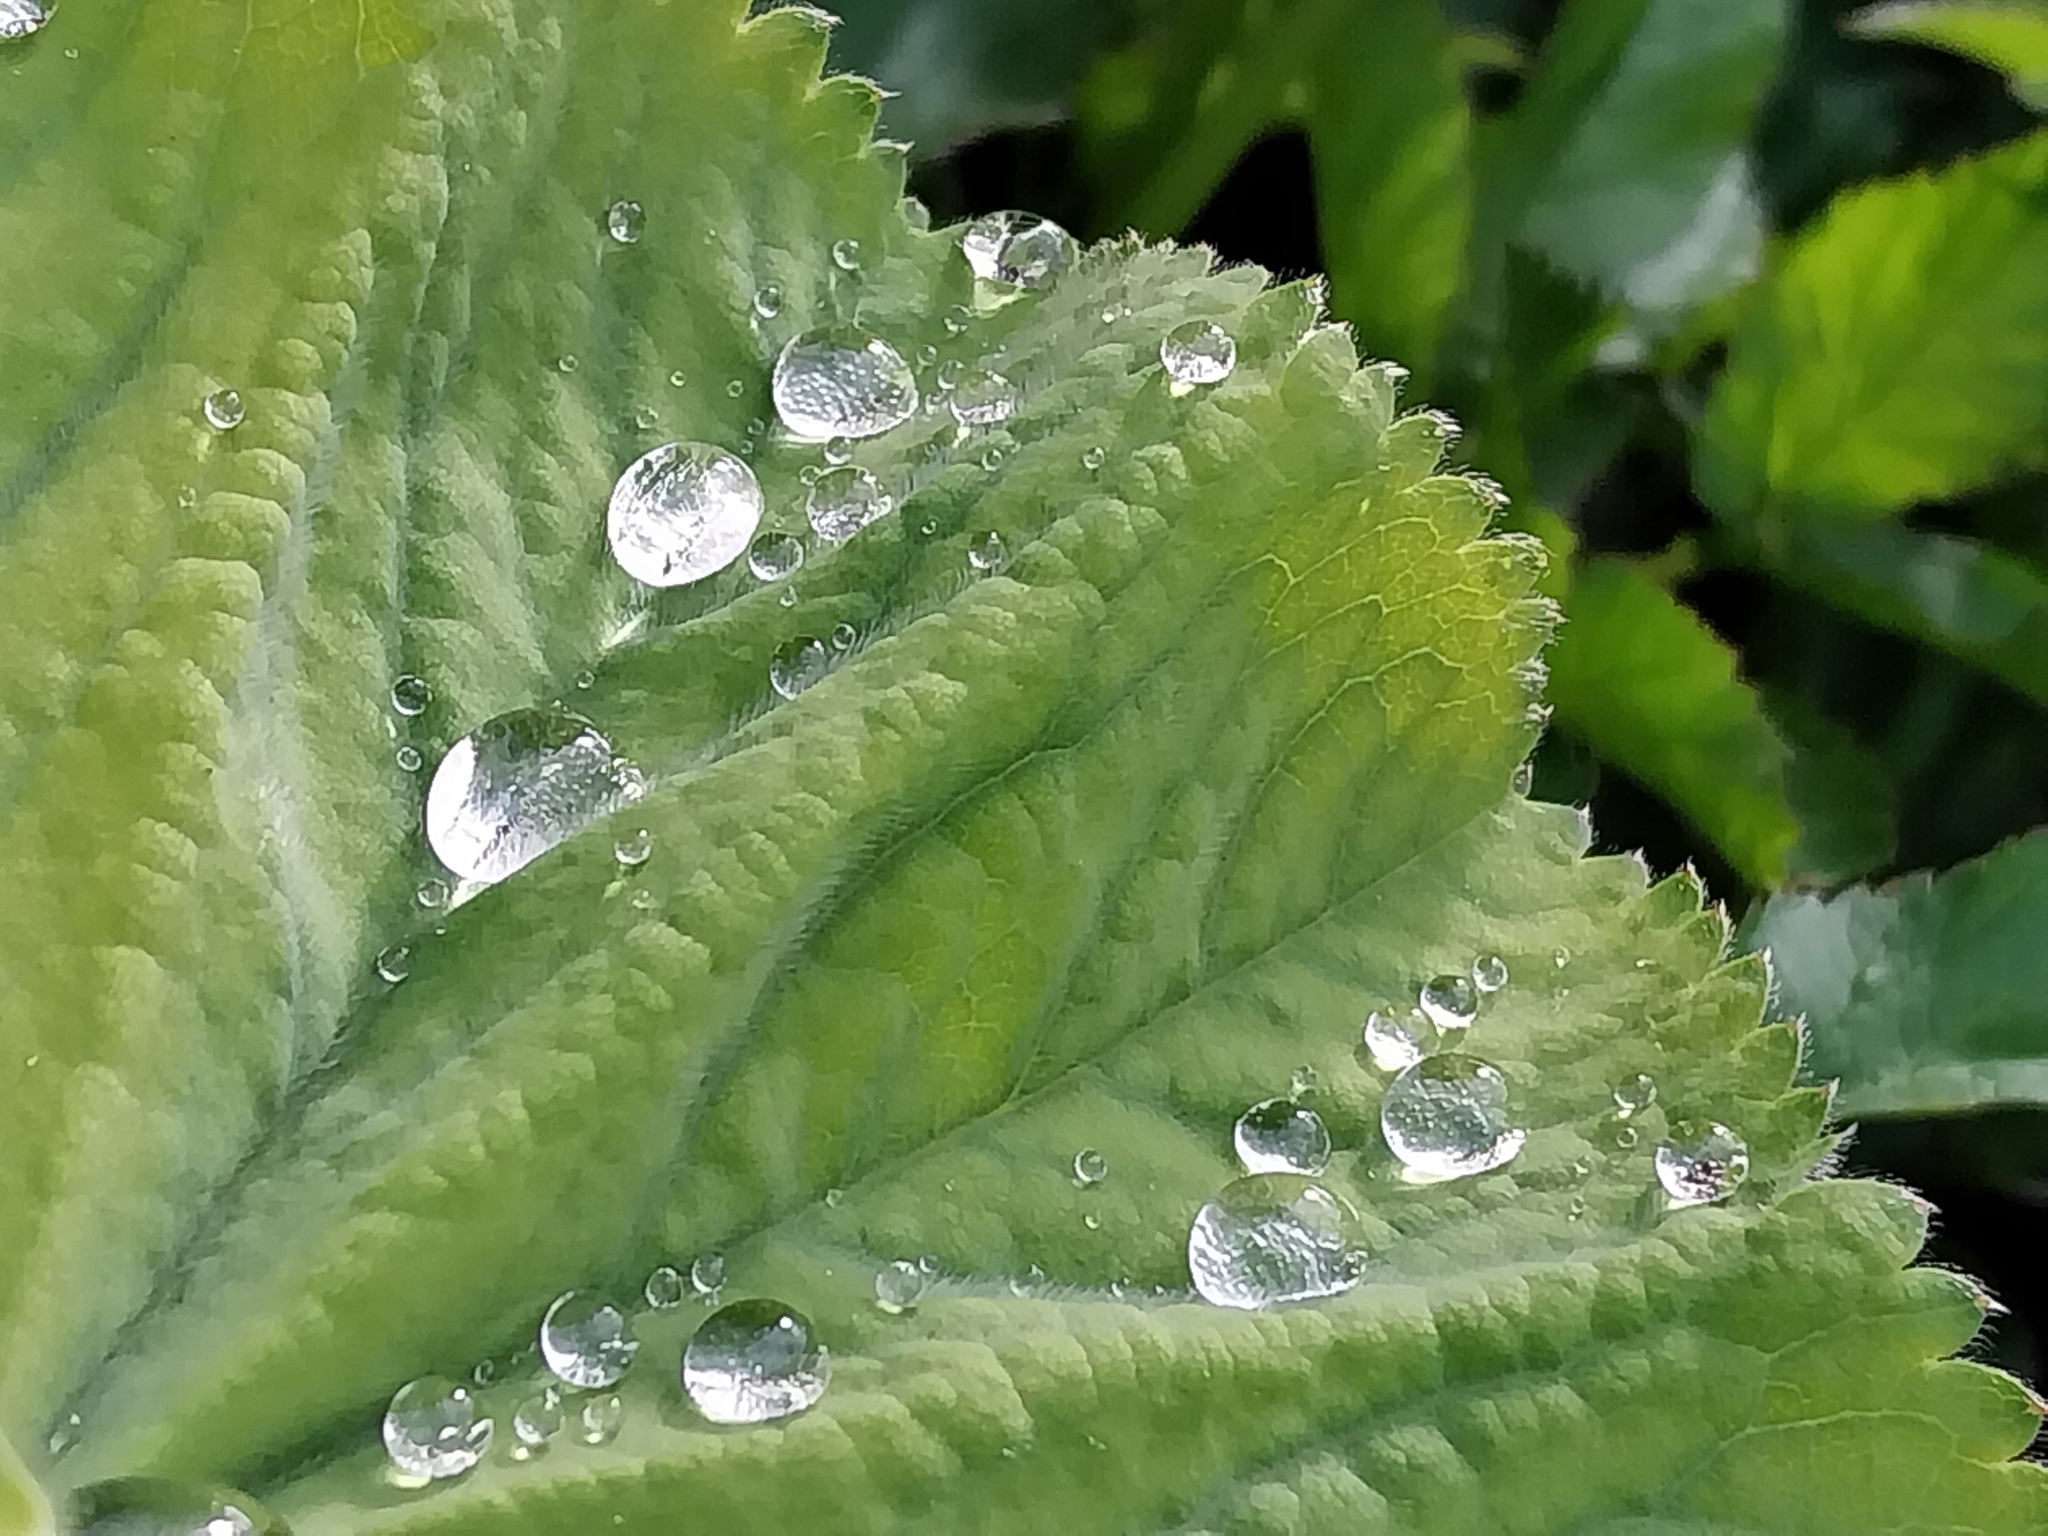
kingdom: Plantae
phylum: Tracheophyta
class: Magnoliopsida
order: Rosales
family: Rosaceae
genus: Alchemilla
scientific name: Alchemilla mollis
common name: Lady's-mantle
